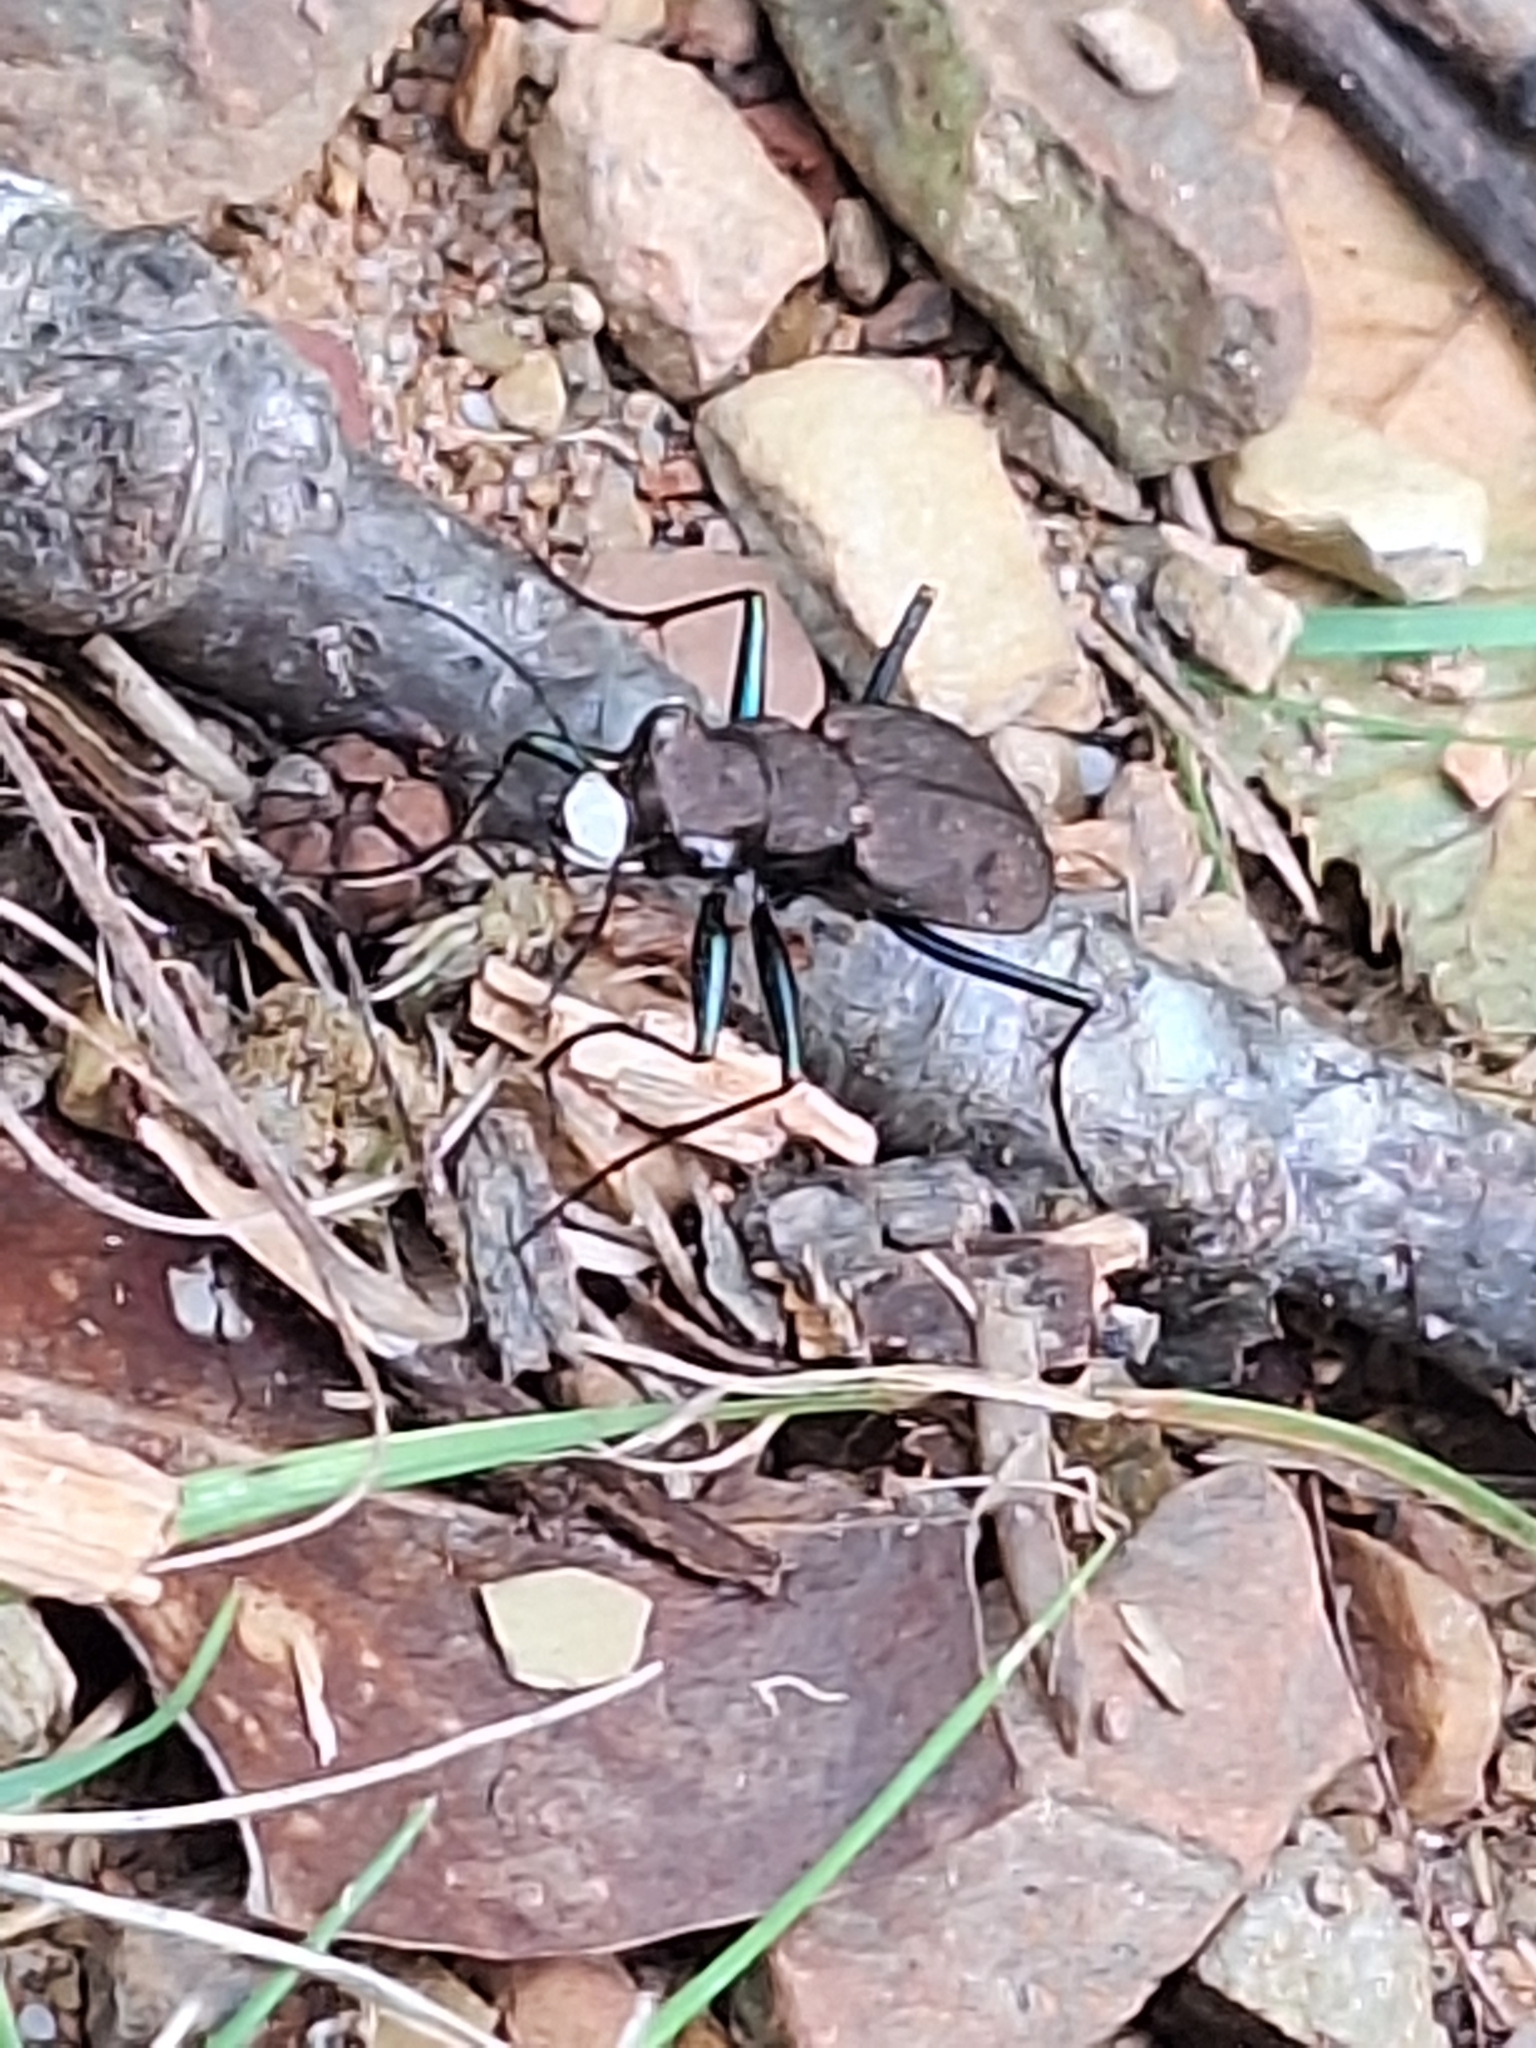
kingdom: Animalia
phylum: Arthropoda
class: Insecta
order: Coleoptera
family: Carabidae
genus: Cylindera
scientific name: Cylindera unipunctata
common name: One-spotted tiger beetle
